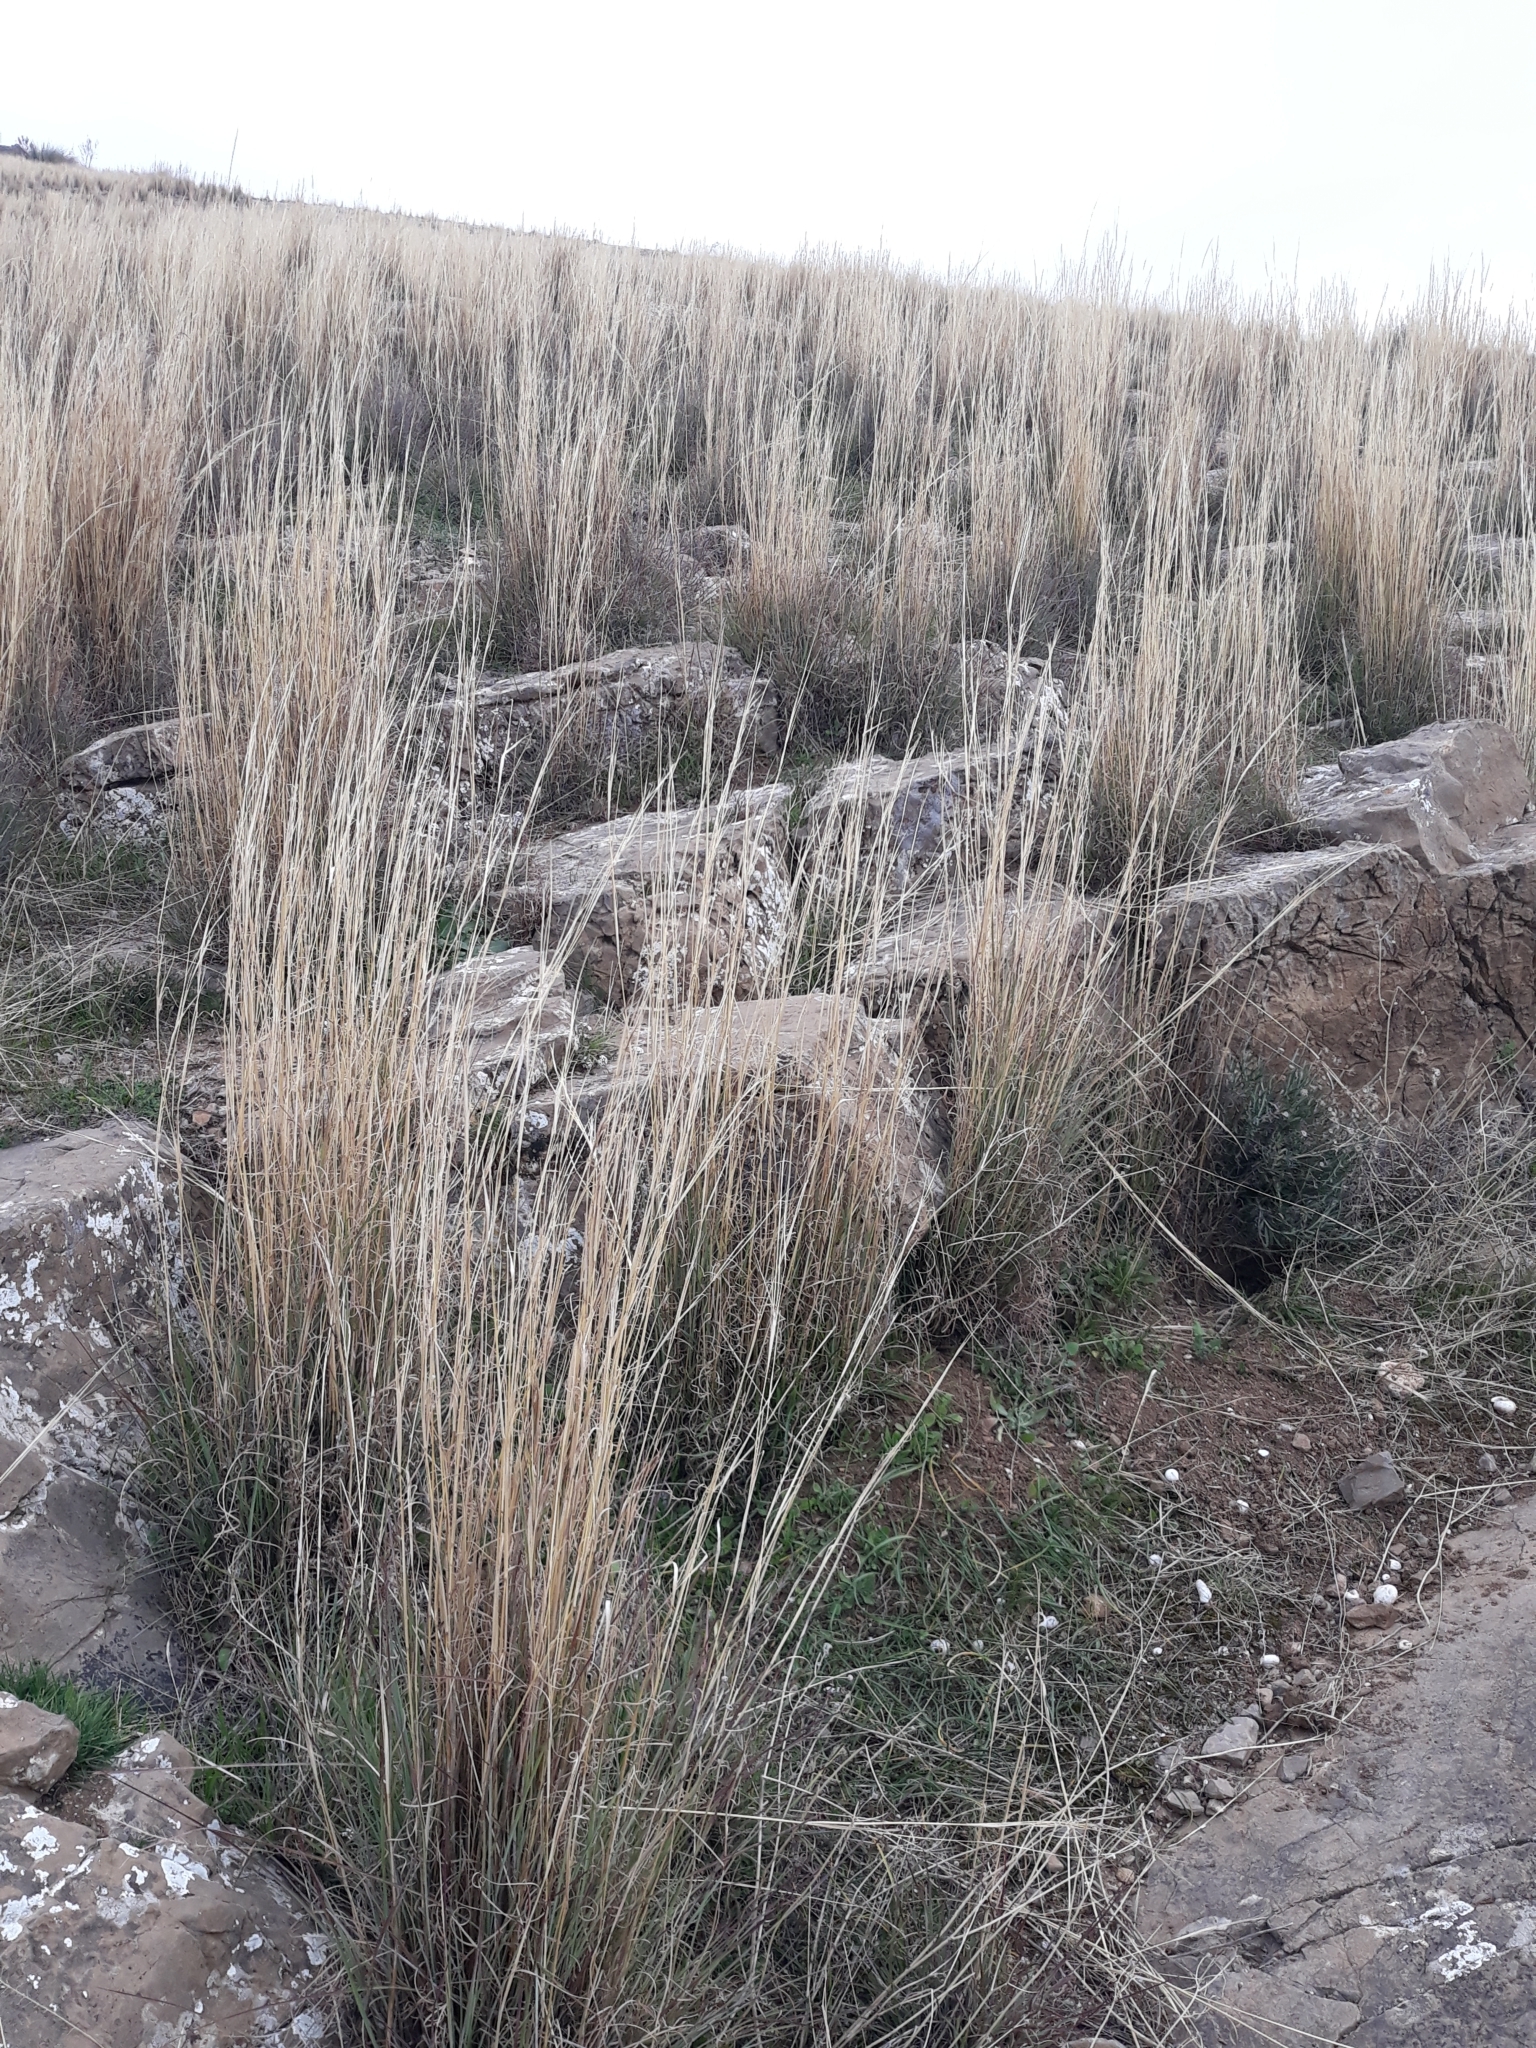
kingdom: Plantae
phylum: Tracheophyta
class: Liliopsida
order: Poales
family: Poaceae
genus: Hyparrhenia
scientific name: Hyparrhenia hirta
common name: Thatching grass
